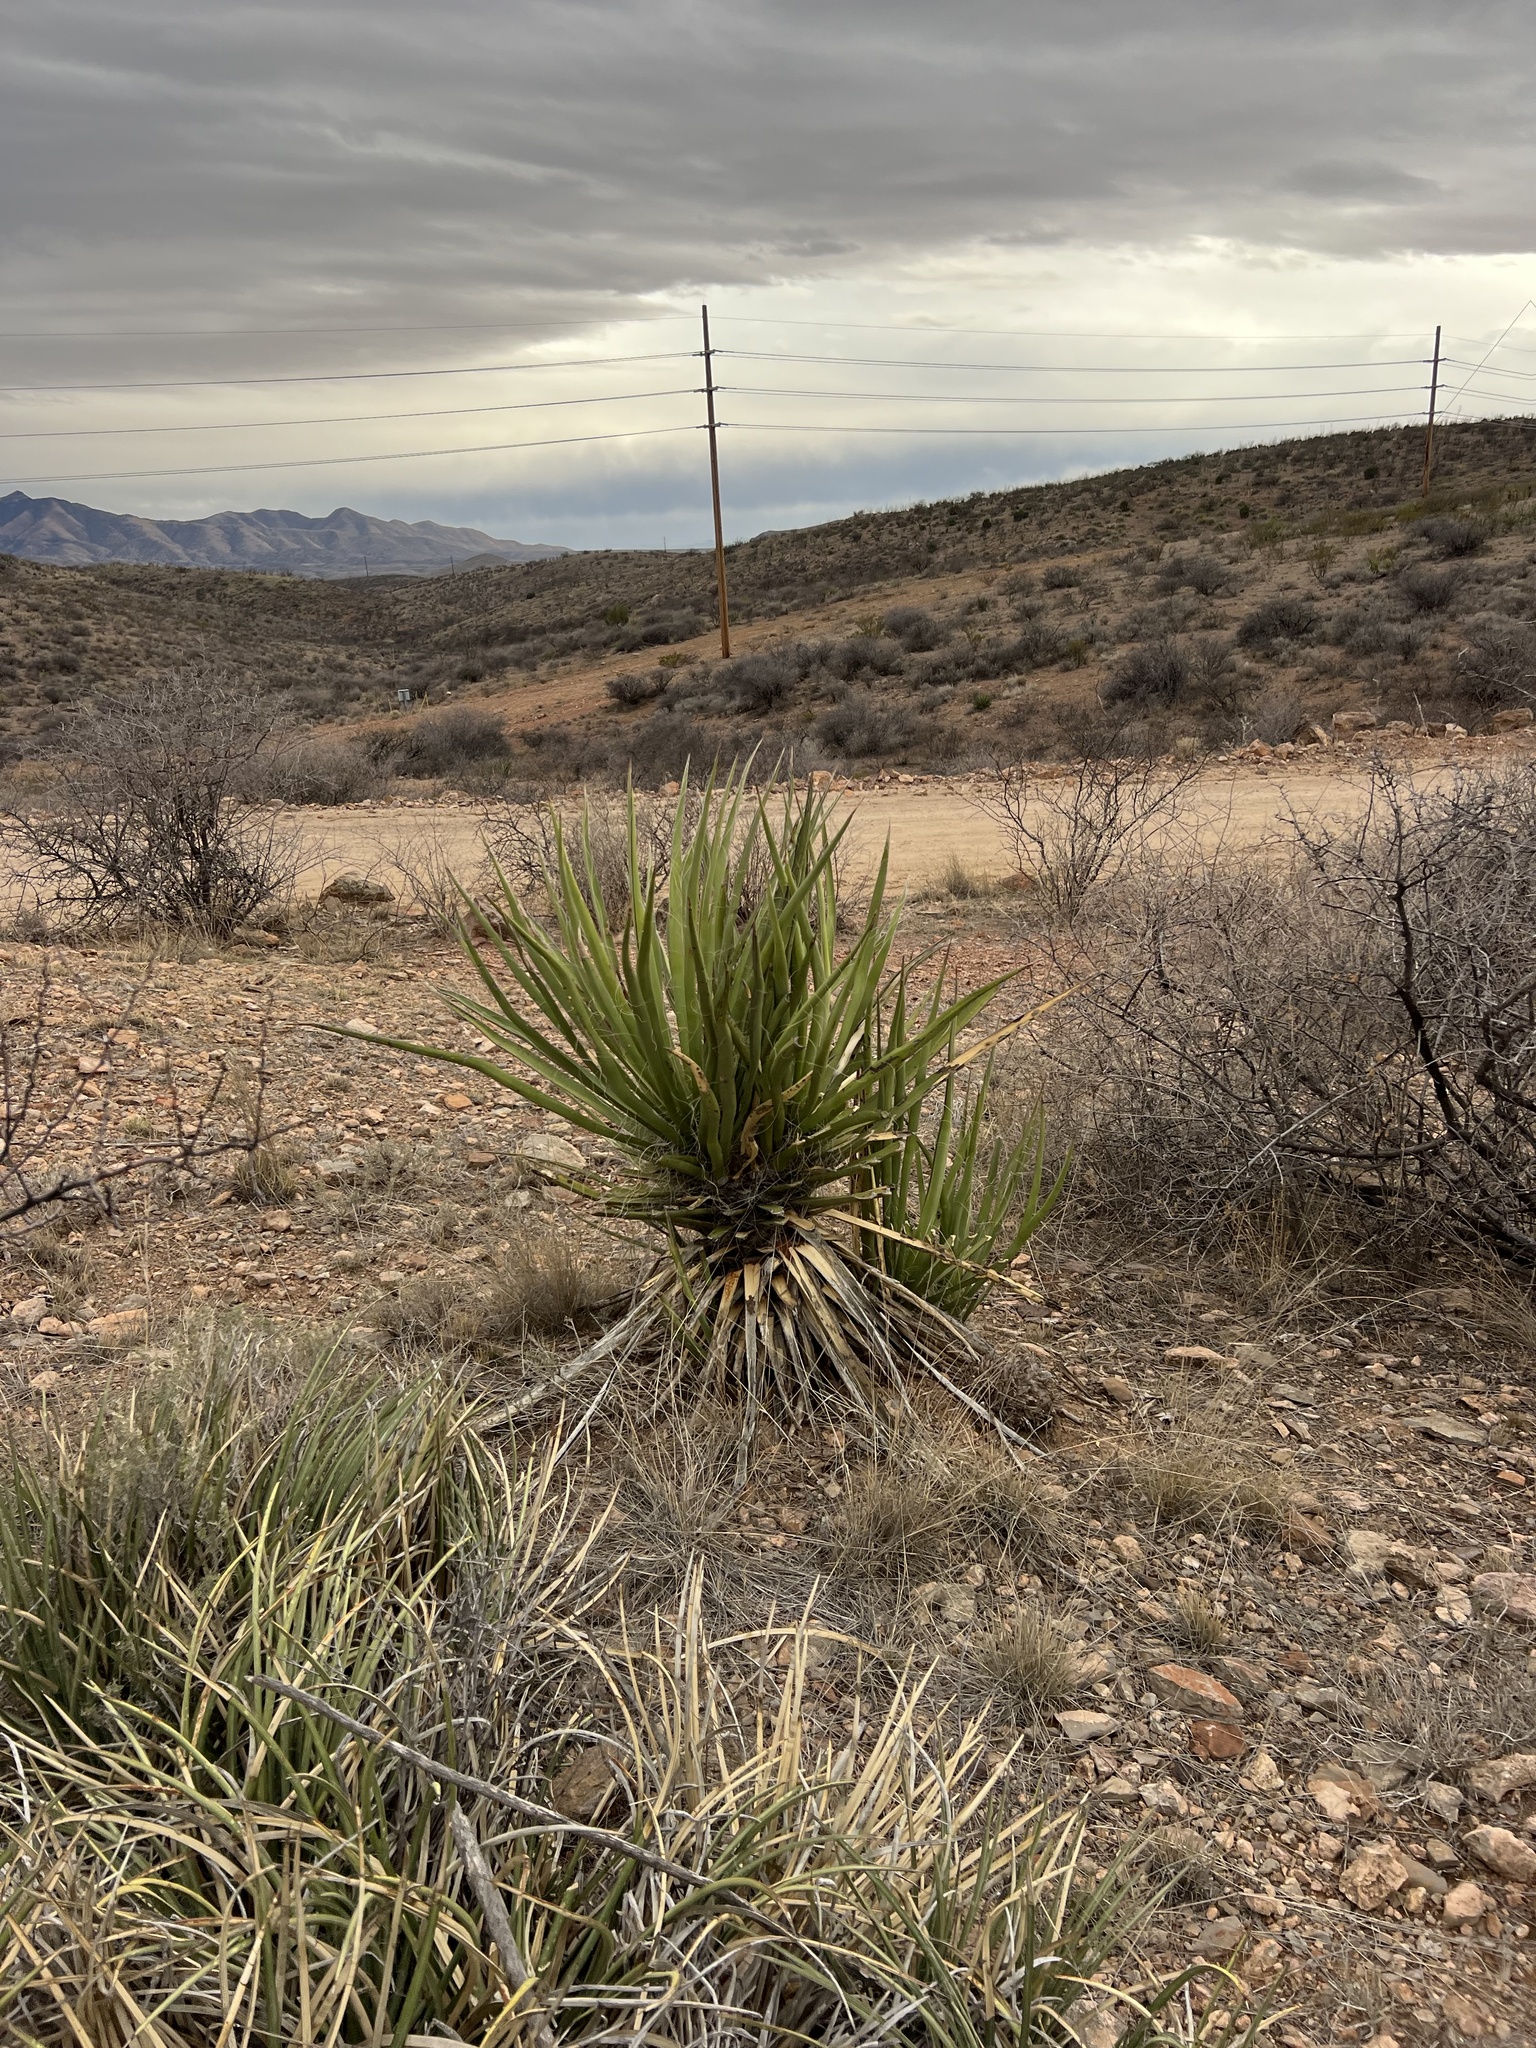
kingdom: Plantae
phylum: Tracheophyta
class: Liliopsida
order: Asparagales
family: Asparagaceae
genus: Yucca
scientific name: Yucca baccata
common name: Banana yucca
